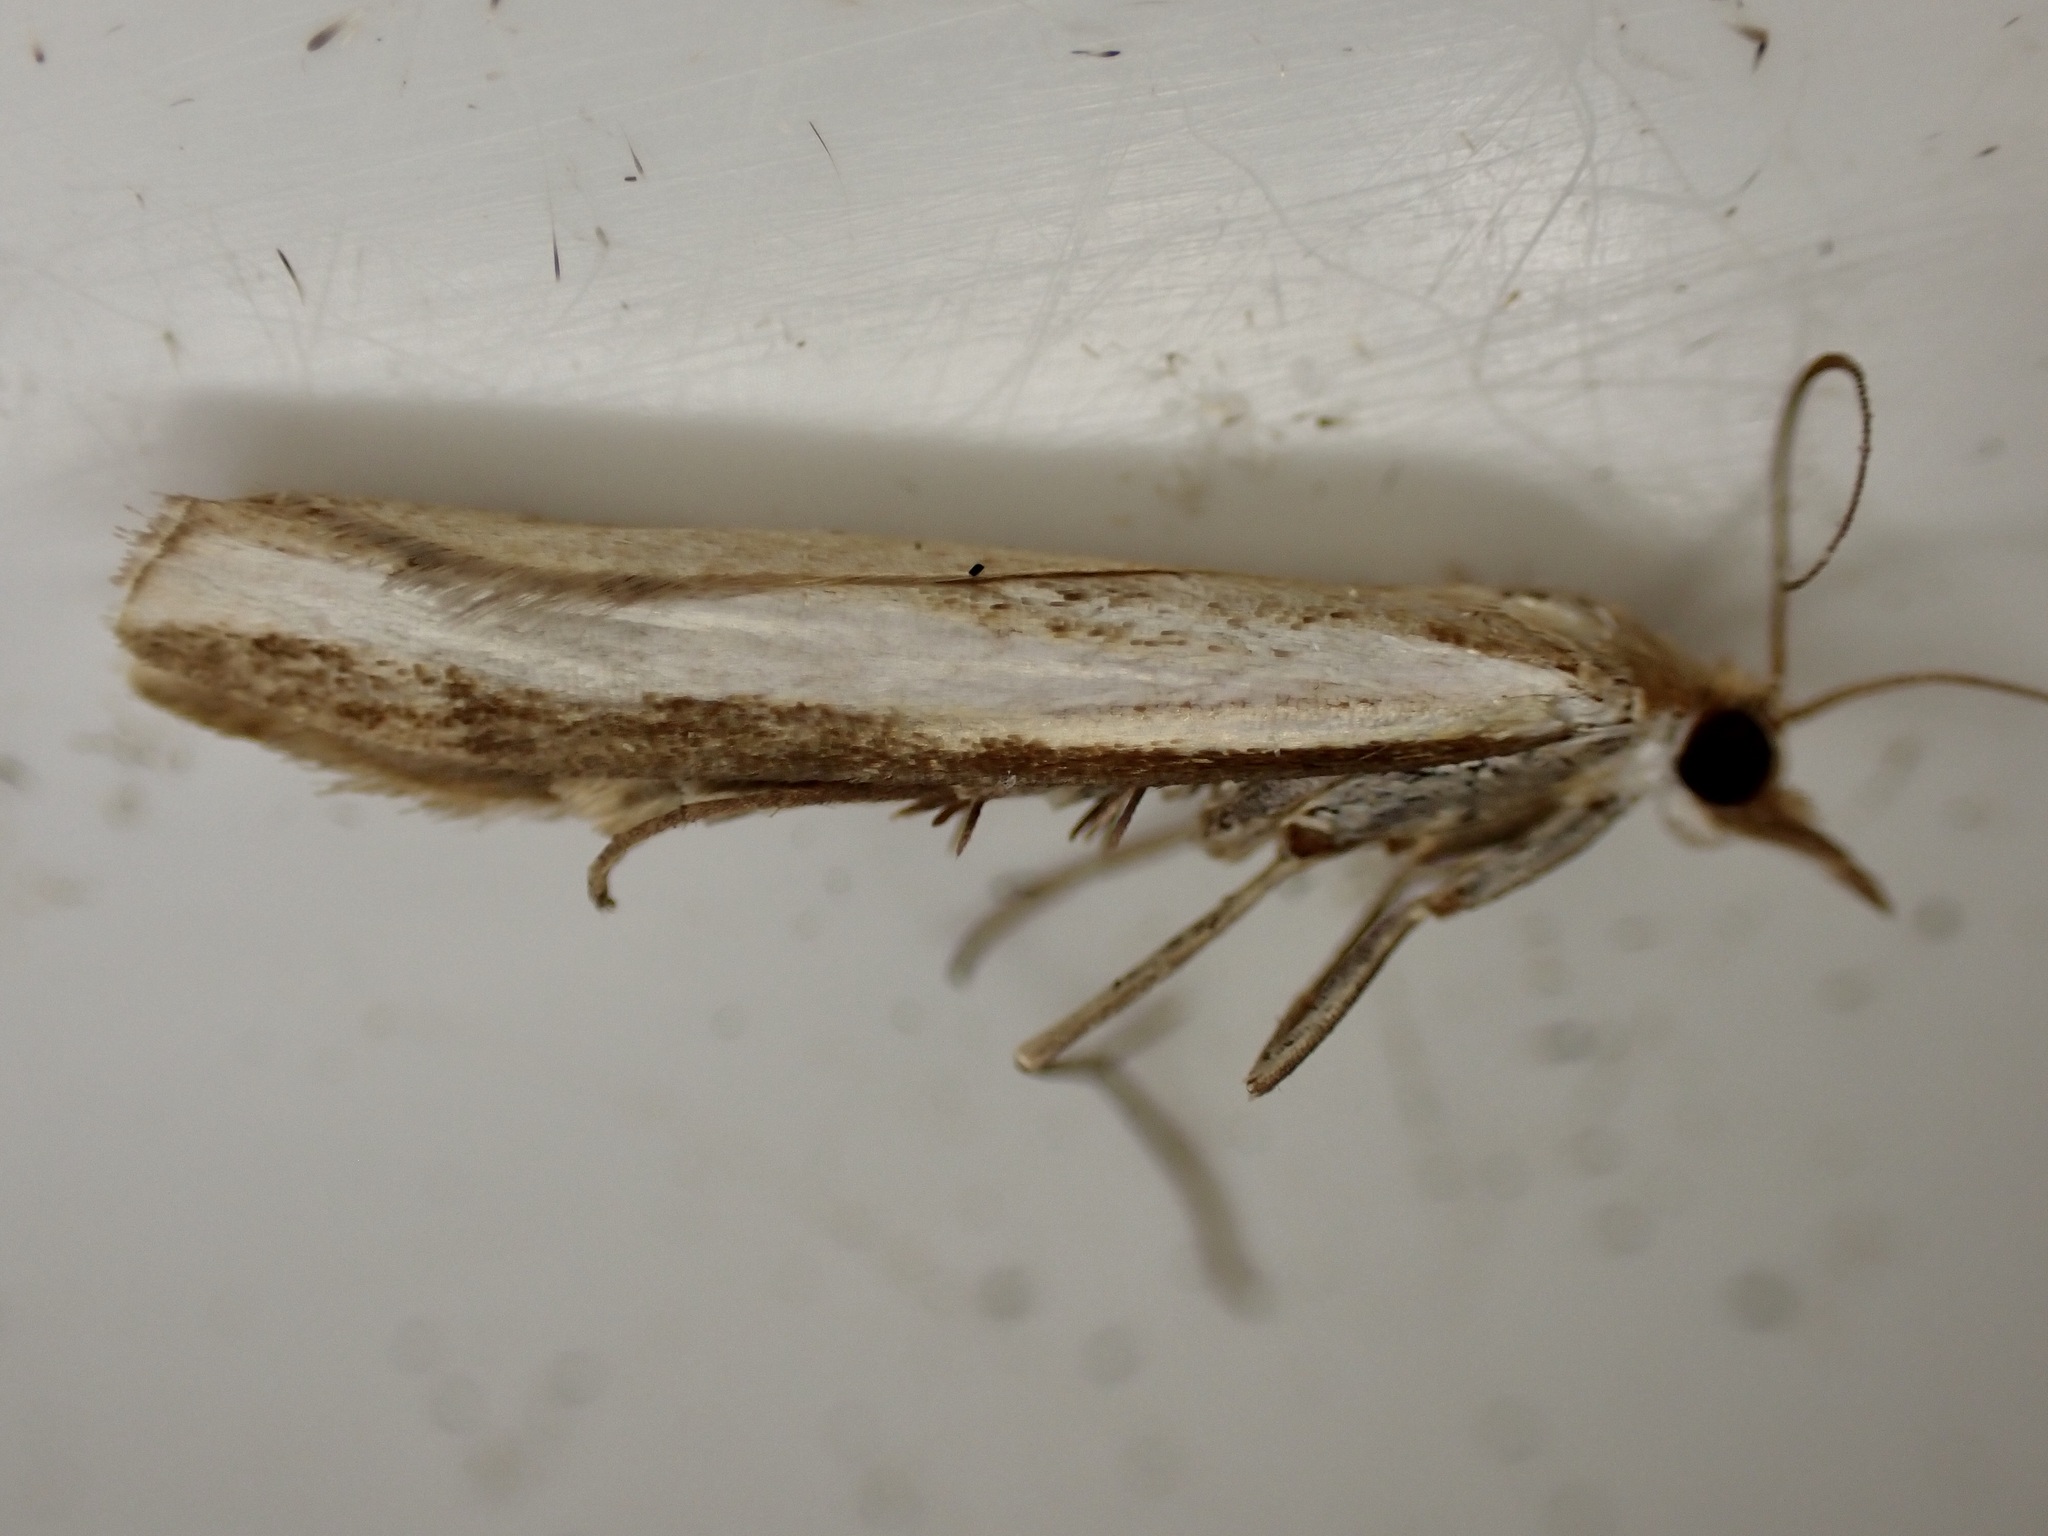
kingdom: Animalia
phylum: Arthropoda
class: Insecta
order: Lepidoptera
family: Crambidae
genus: Orocrambus
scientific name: Orocrambus flexuosellus
